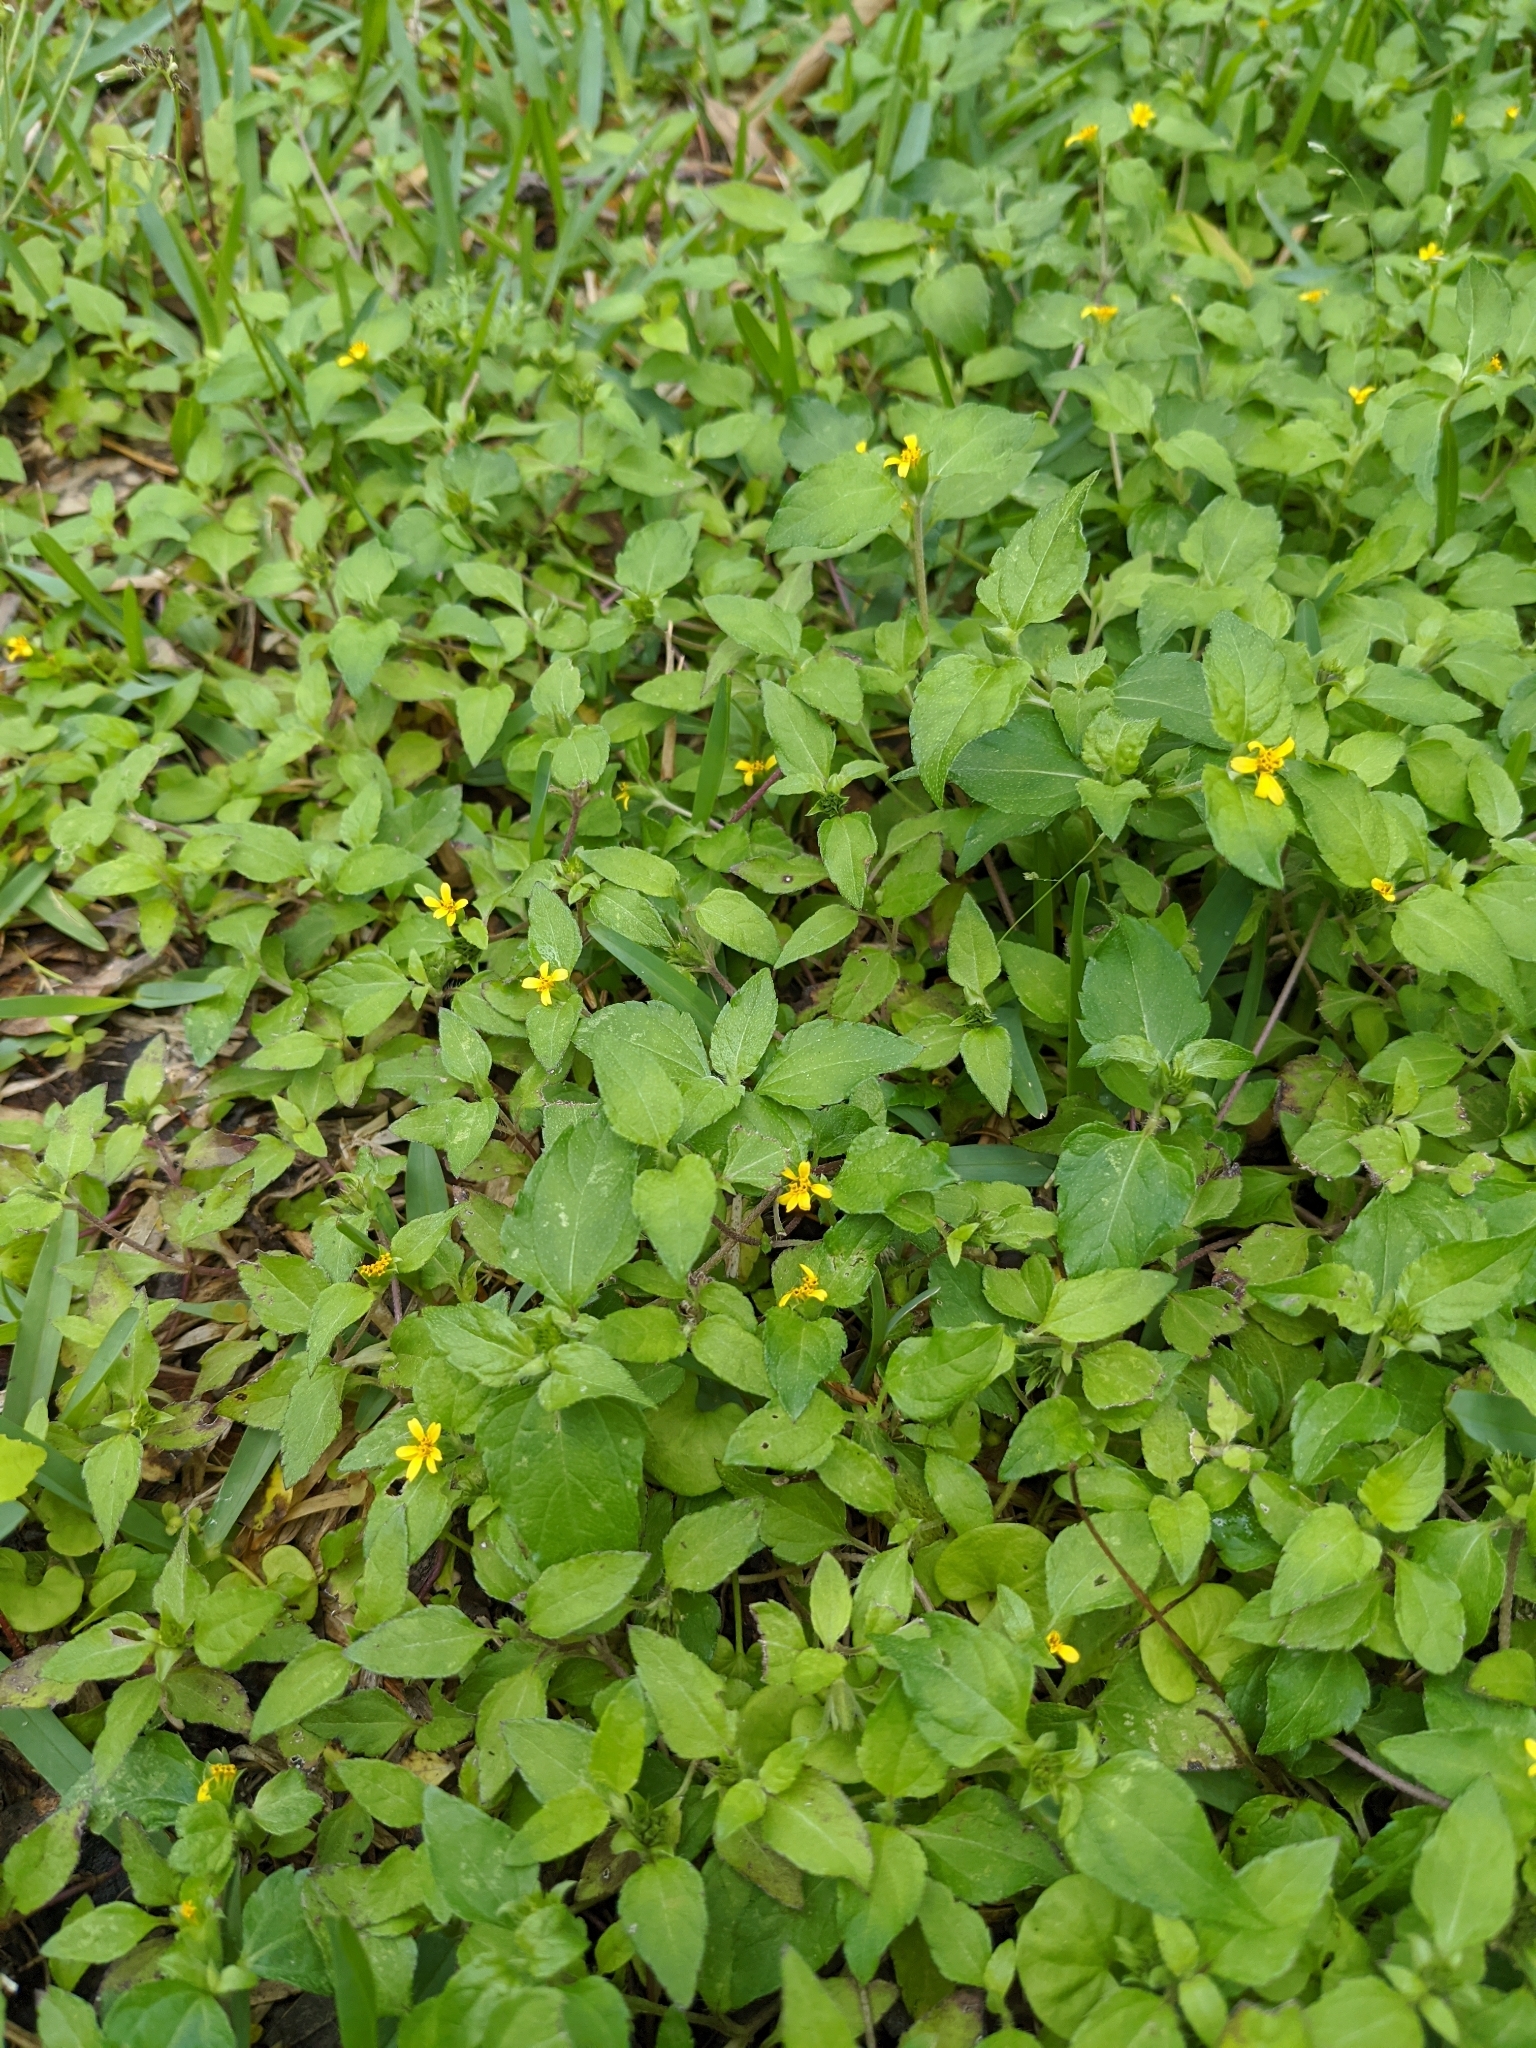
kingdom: Plantae
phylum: Tracheophyta
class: Magnoliopsida
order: Asterales
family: Asteraceae
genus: Calyptocarpus
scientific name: Calyptocarpus vialis
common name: Straggler daisy
